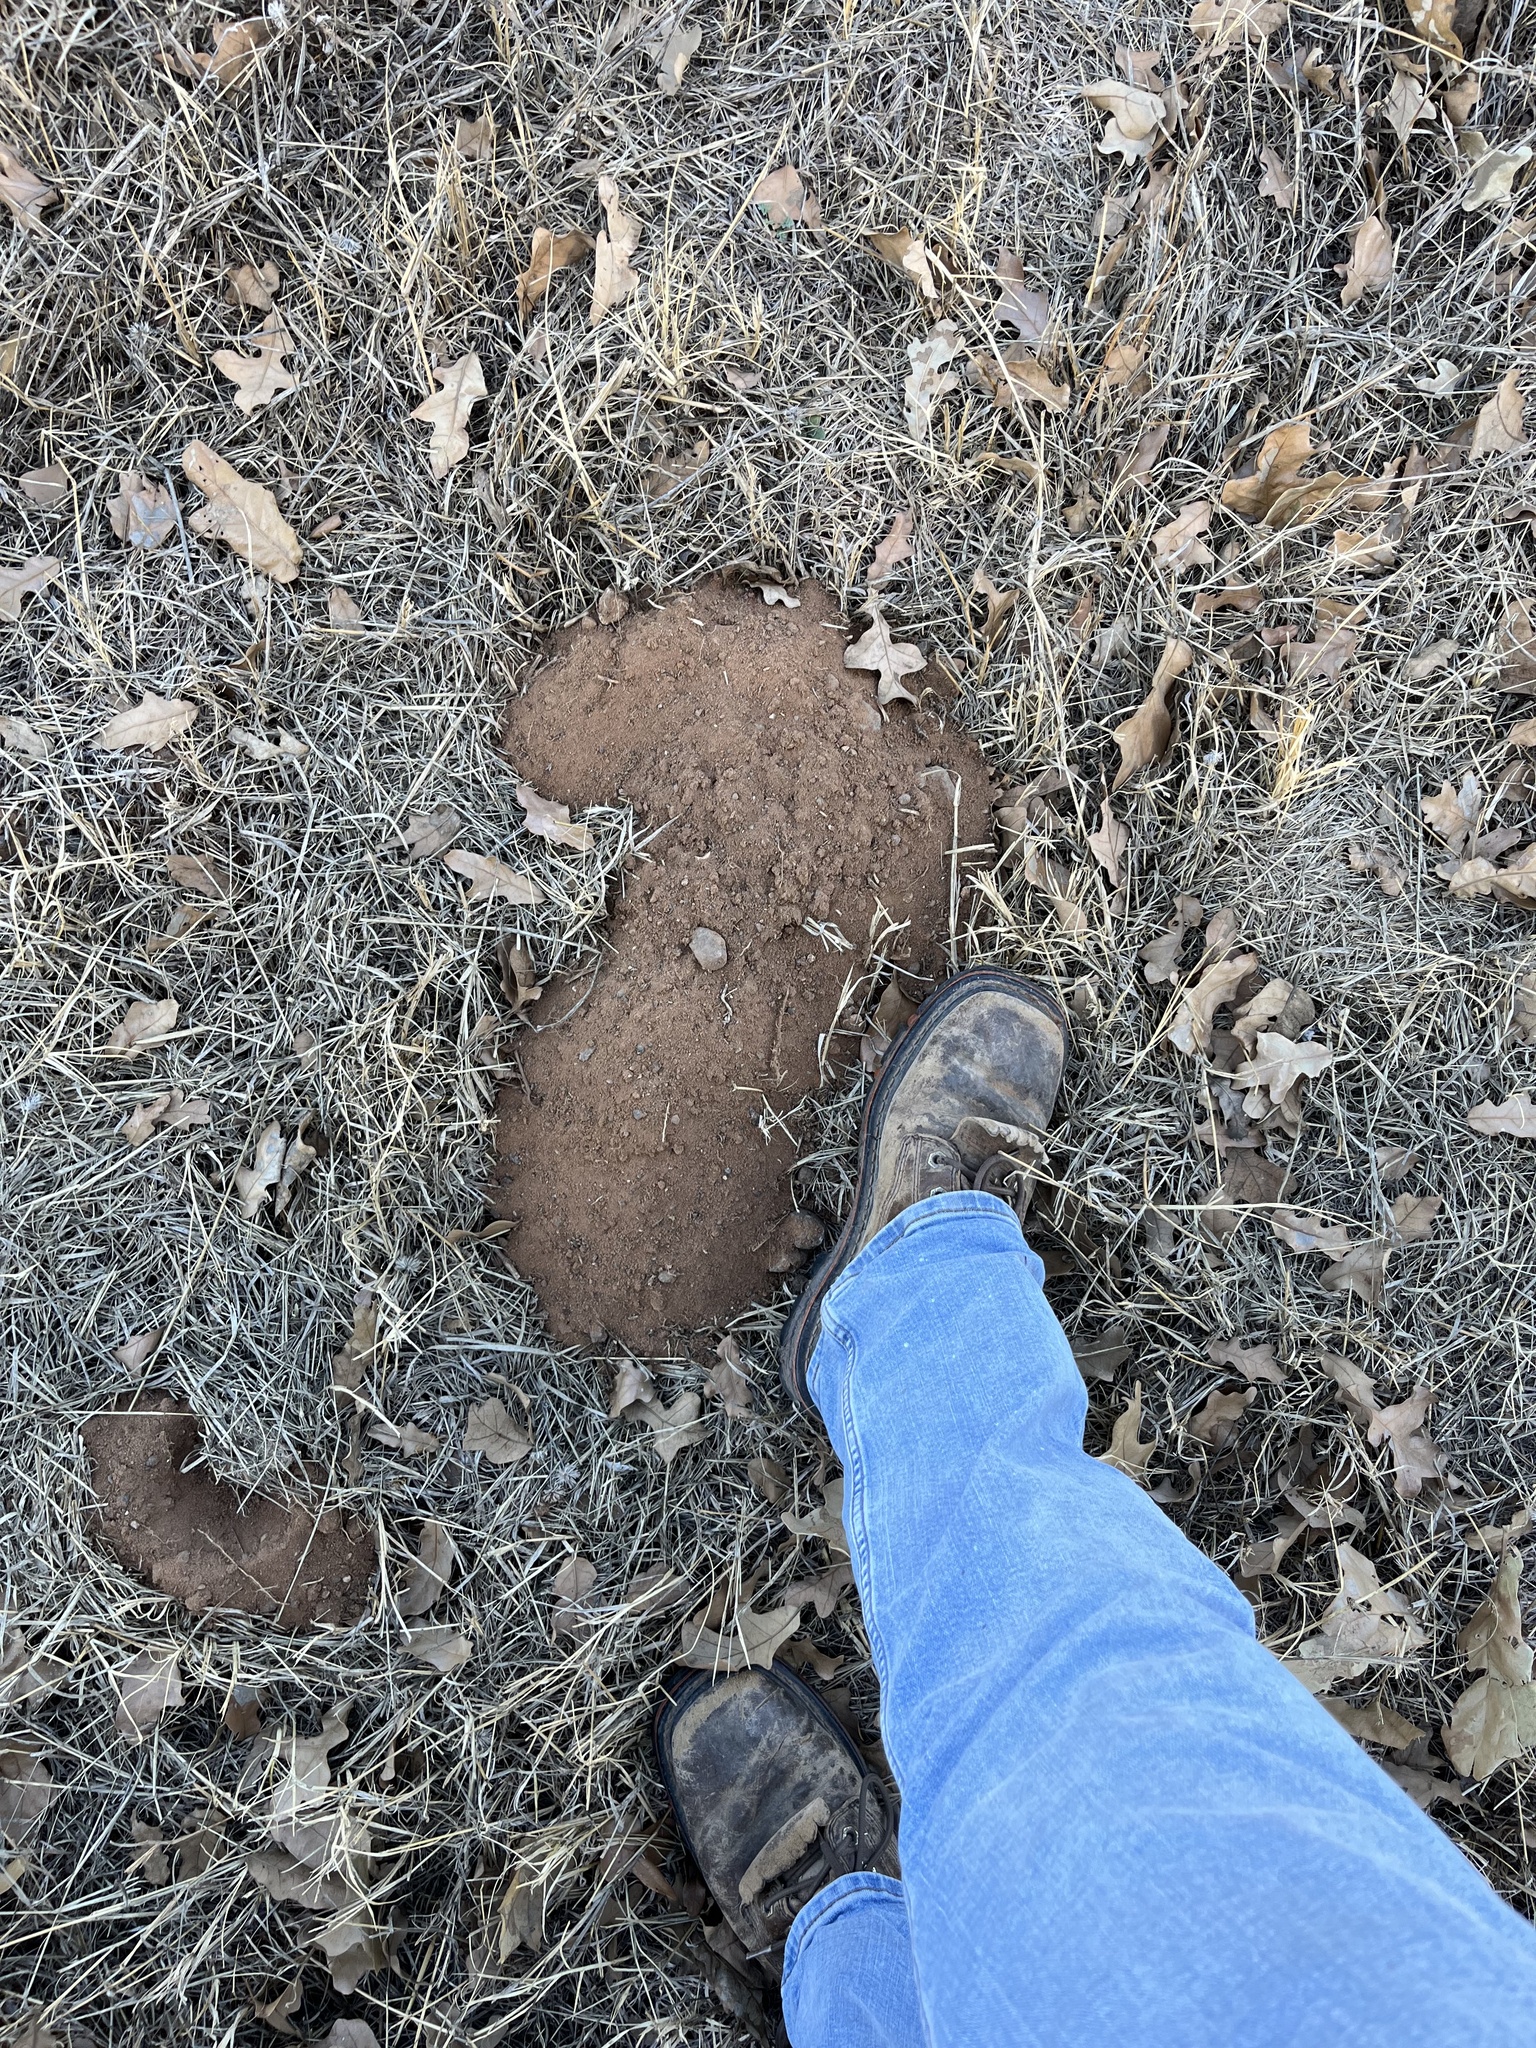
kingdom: Animalia
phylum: Chordata
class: Mammalia
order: Rodentia
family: Geomyidae
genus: Geomys
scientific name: Geomys texensis
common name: Llano pocket gopher
